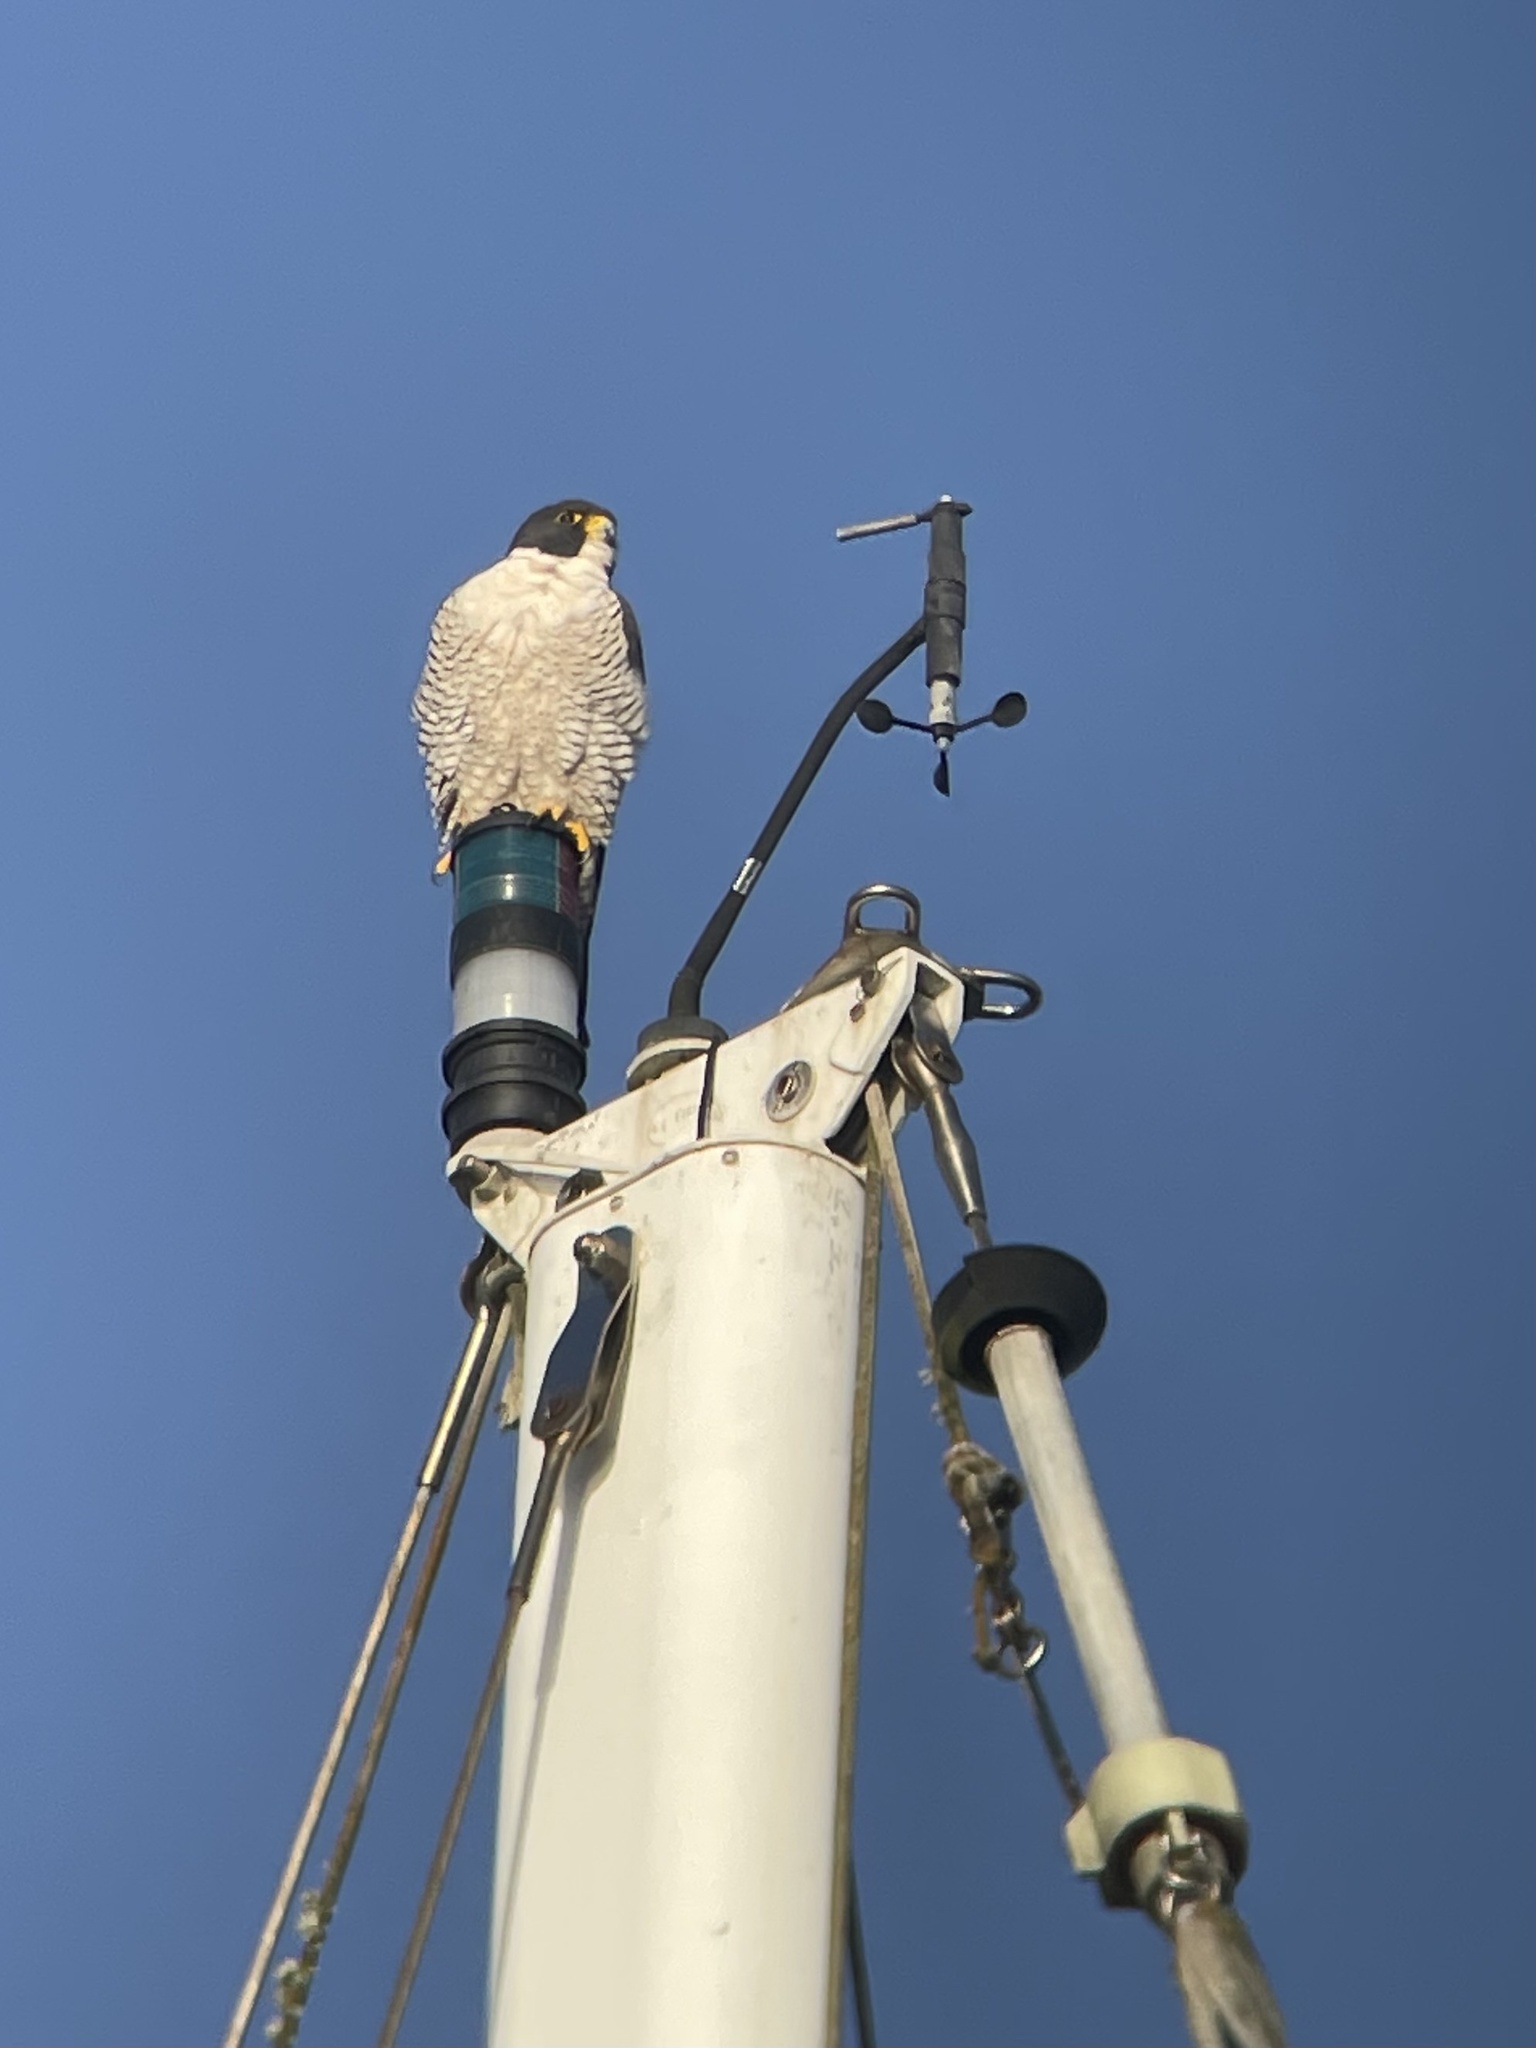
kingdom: Animalia
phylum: Chordata
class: Aves
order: Falconiformes
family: Falconidae
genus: Falco
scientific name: Falco peregrinus
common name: Peregrine falcon
